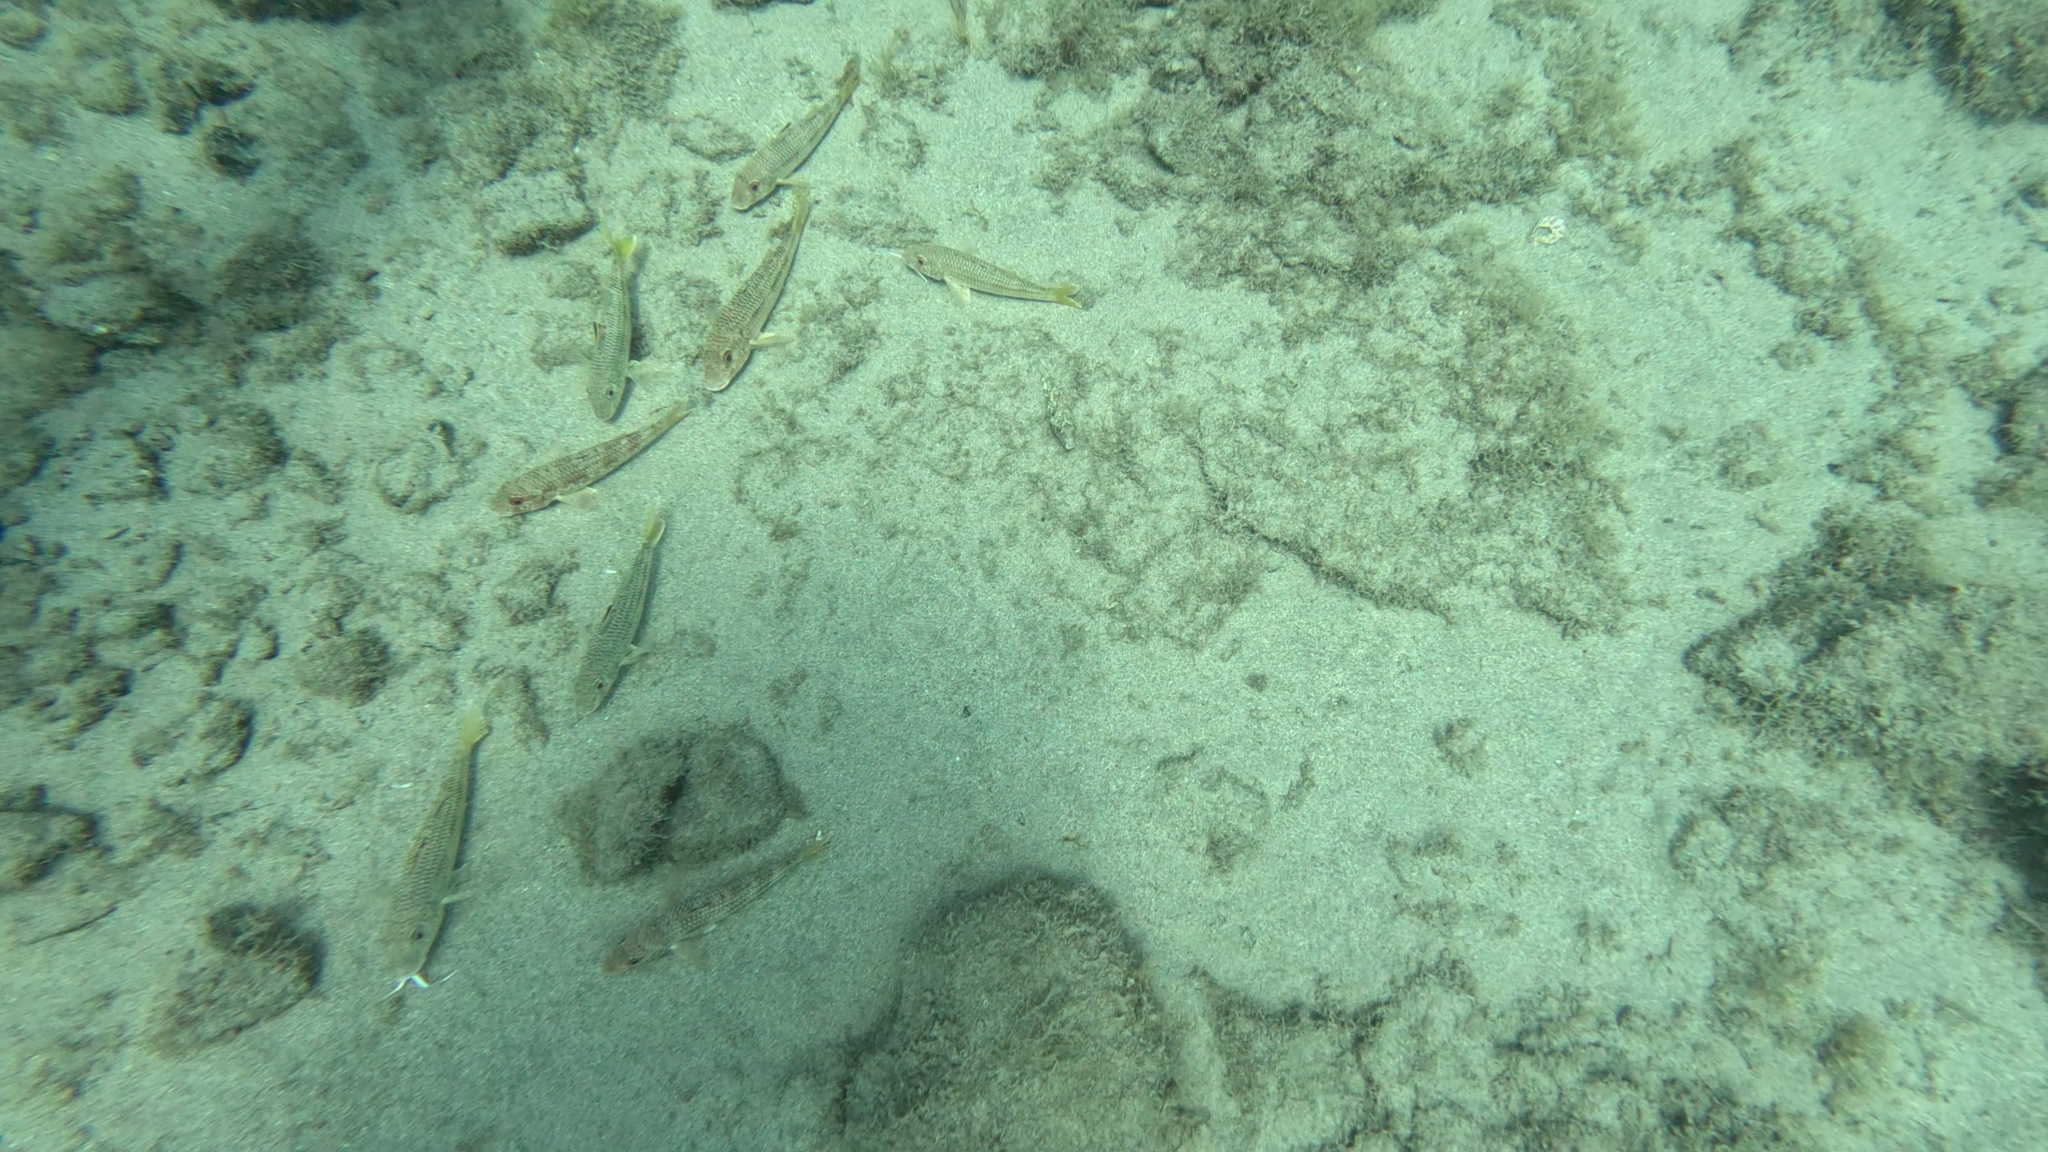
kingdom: Animalia
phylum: Chordata
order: Perciformes
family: Mullidae
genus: Mullus
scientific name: Mullus surmuletus
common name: Red mullet
